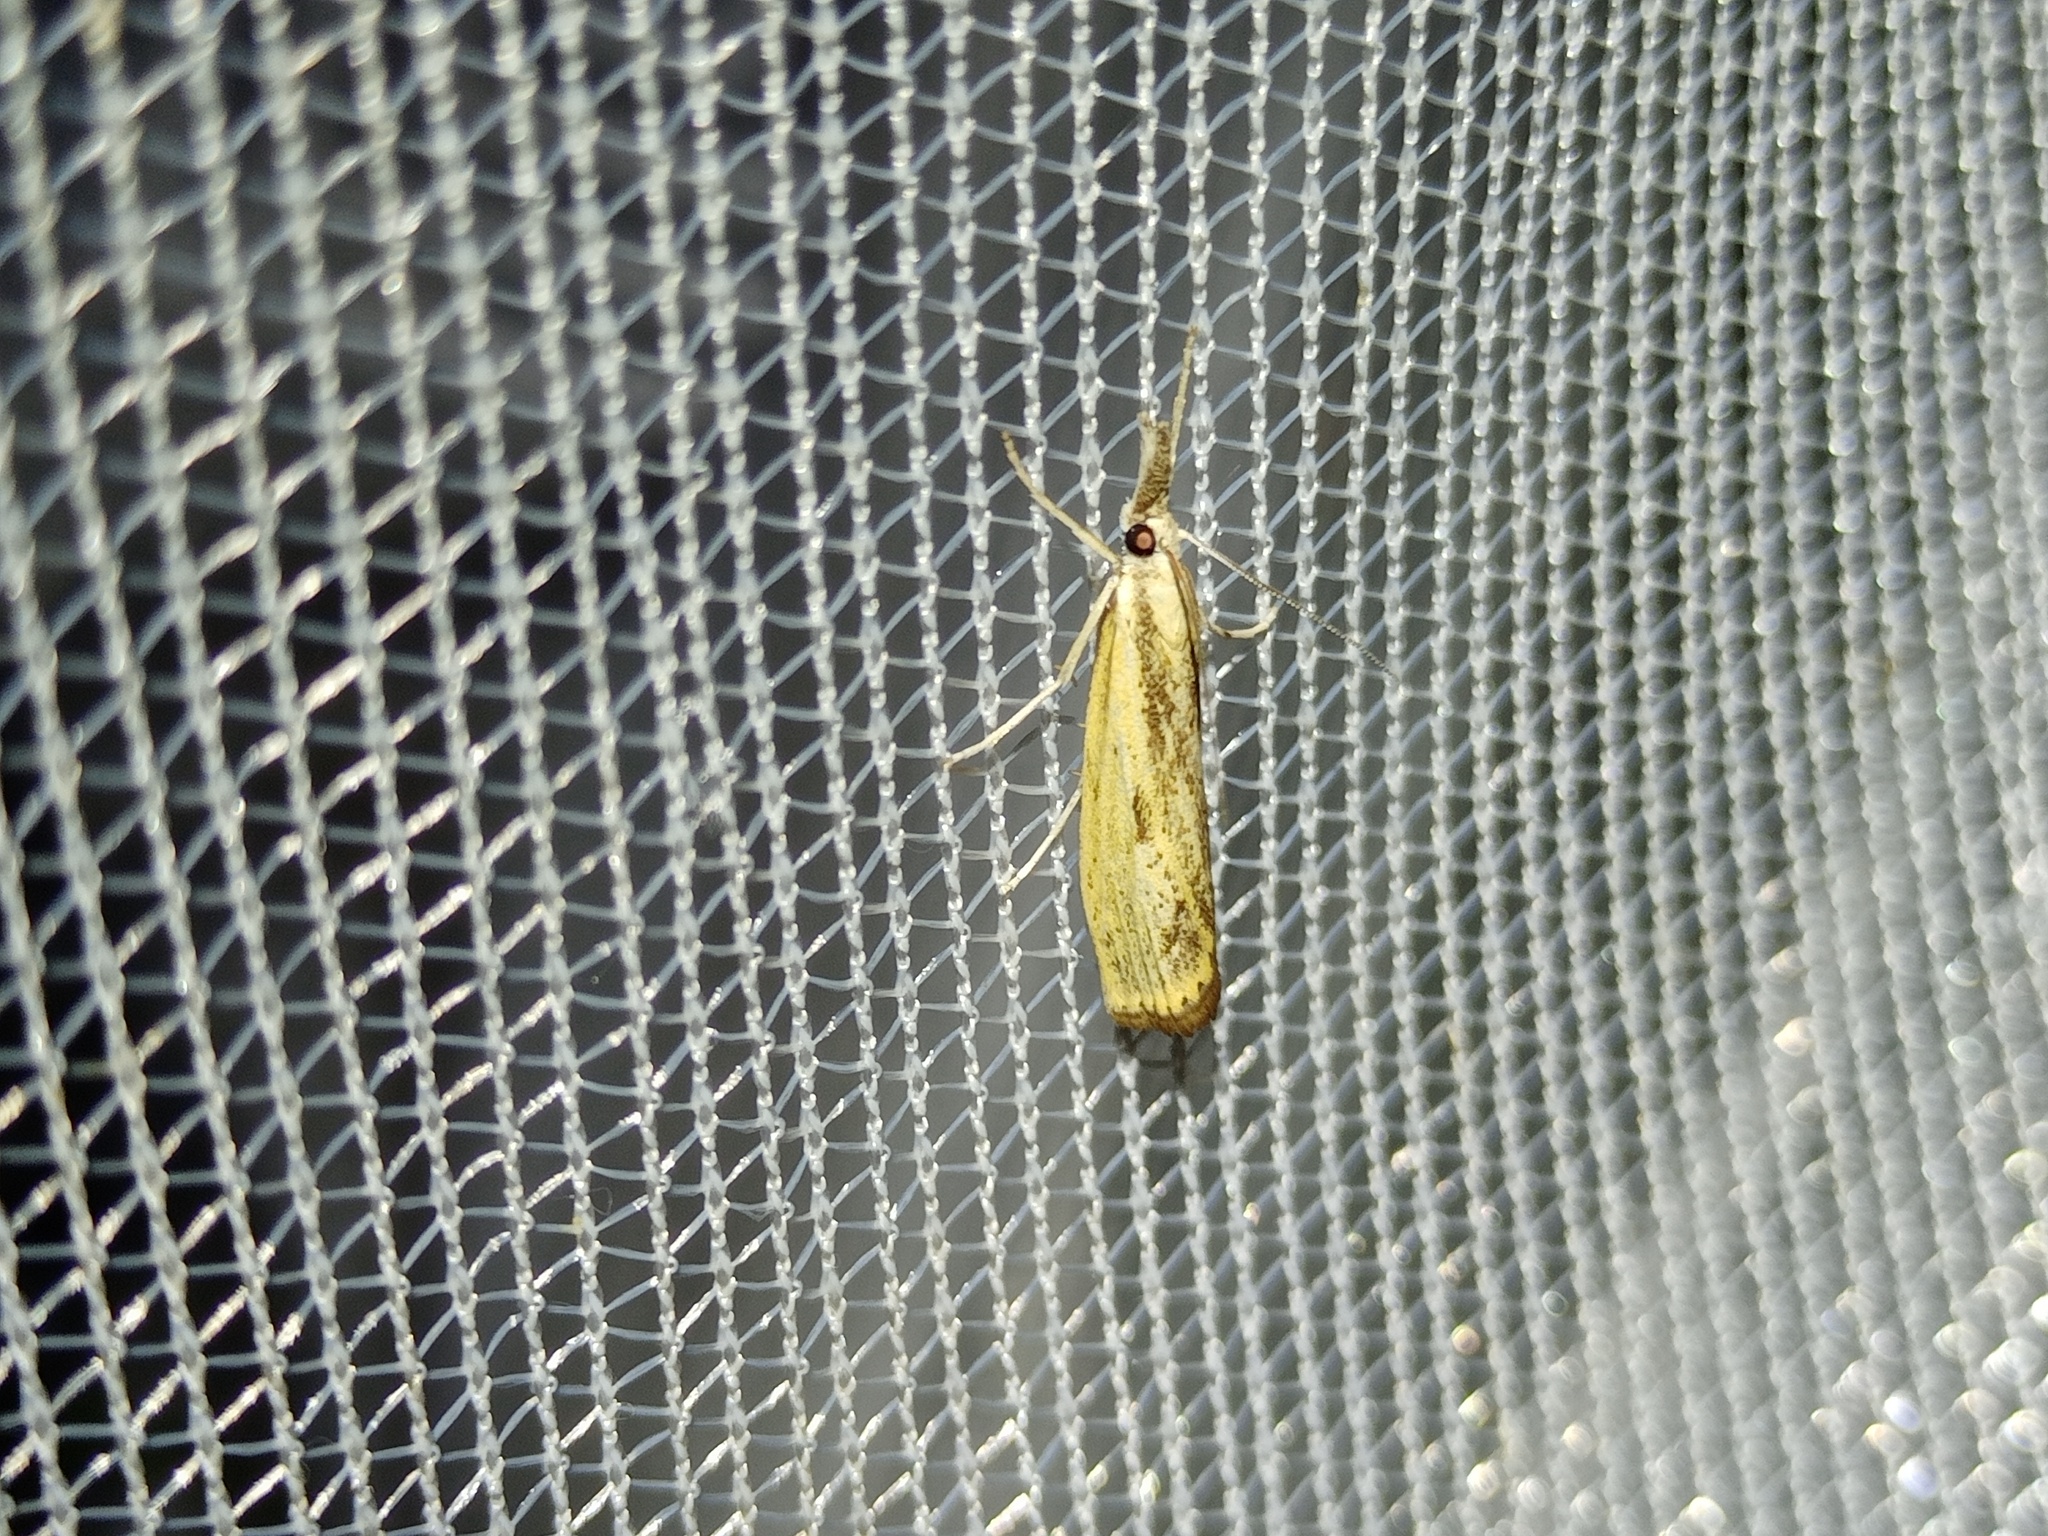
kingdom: Animalia
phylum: Arthropoda
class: Insecta
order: Lepidoptera
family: Crambidae
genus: Agriphila
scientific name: Agriphila inquinatella
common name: Barred grass-veneer
